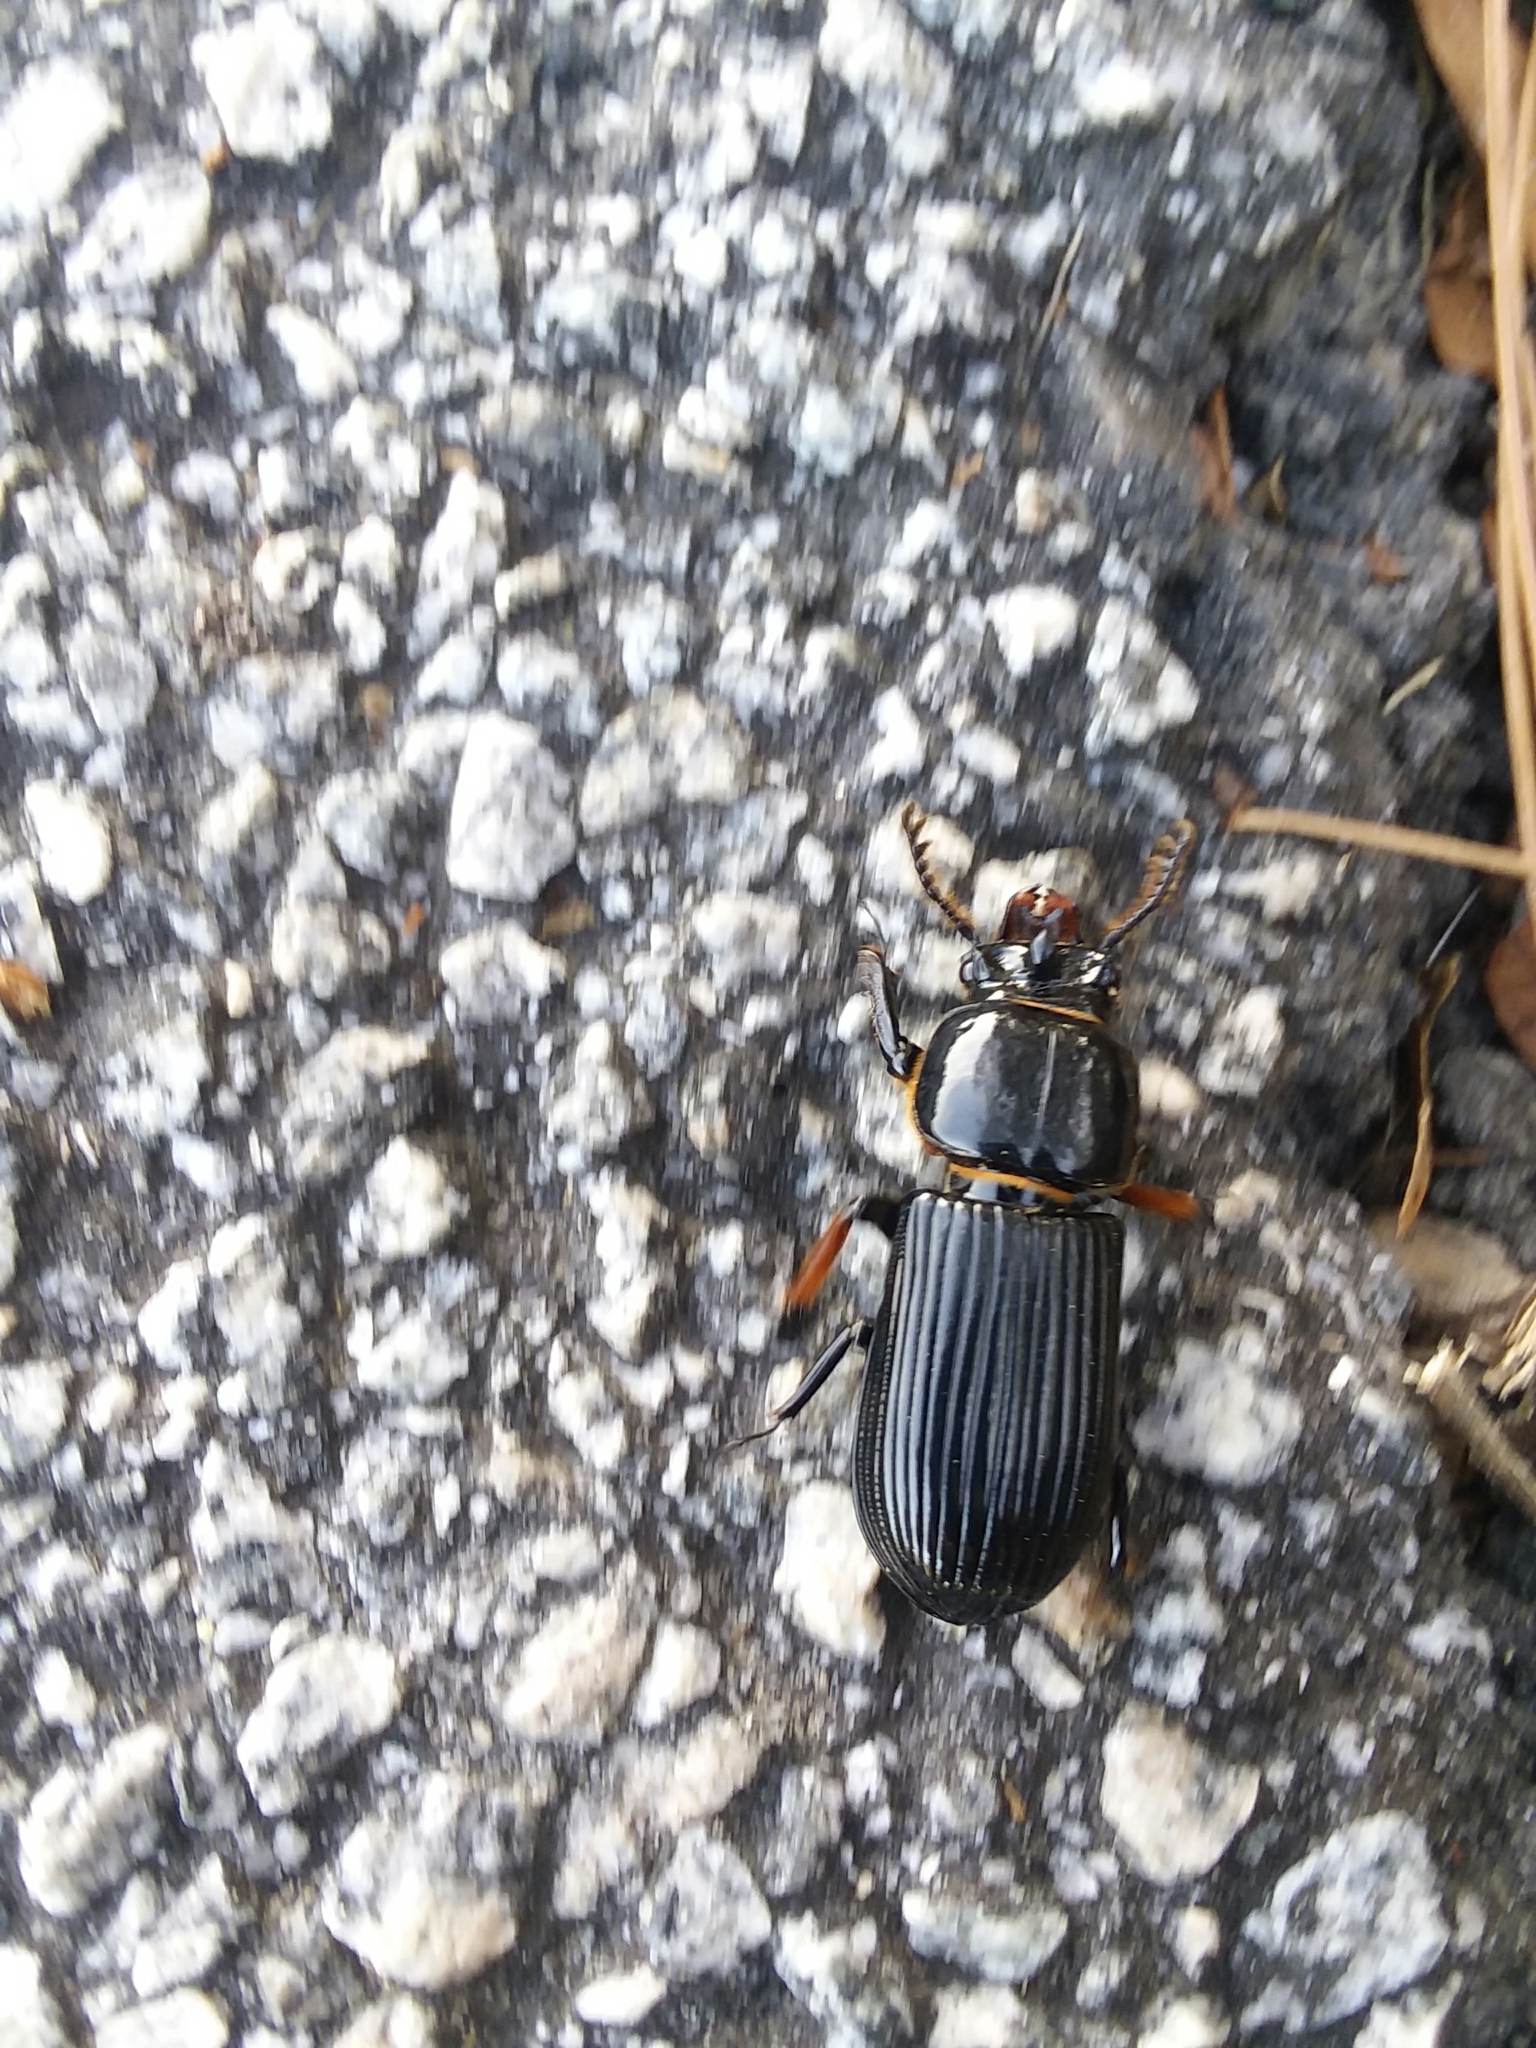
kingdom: Animalia
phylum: Arthropoda
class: Insecta
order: Coleoptera
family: Passalidae
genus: Odontotaenius
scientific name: Odontotaenius disjunctus
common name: Patent leather beetle
